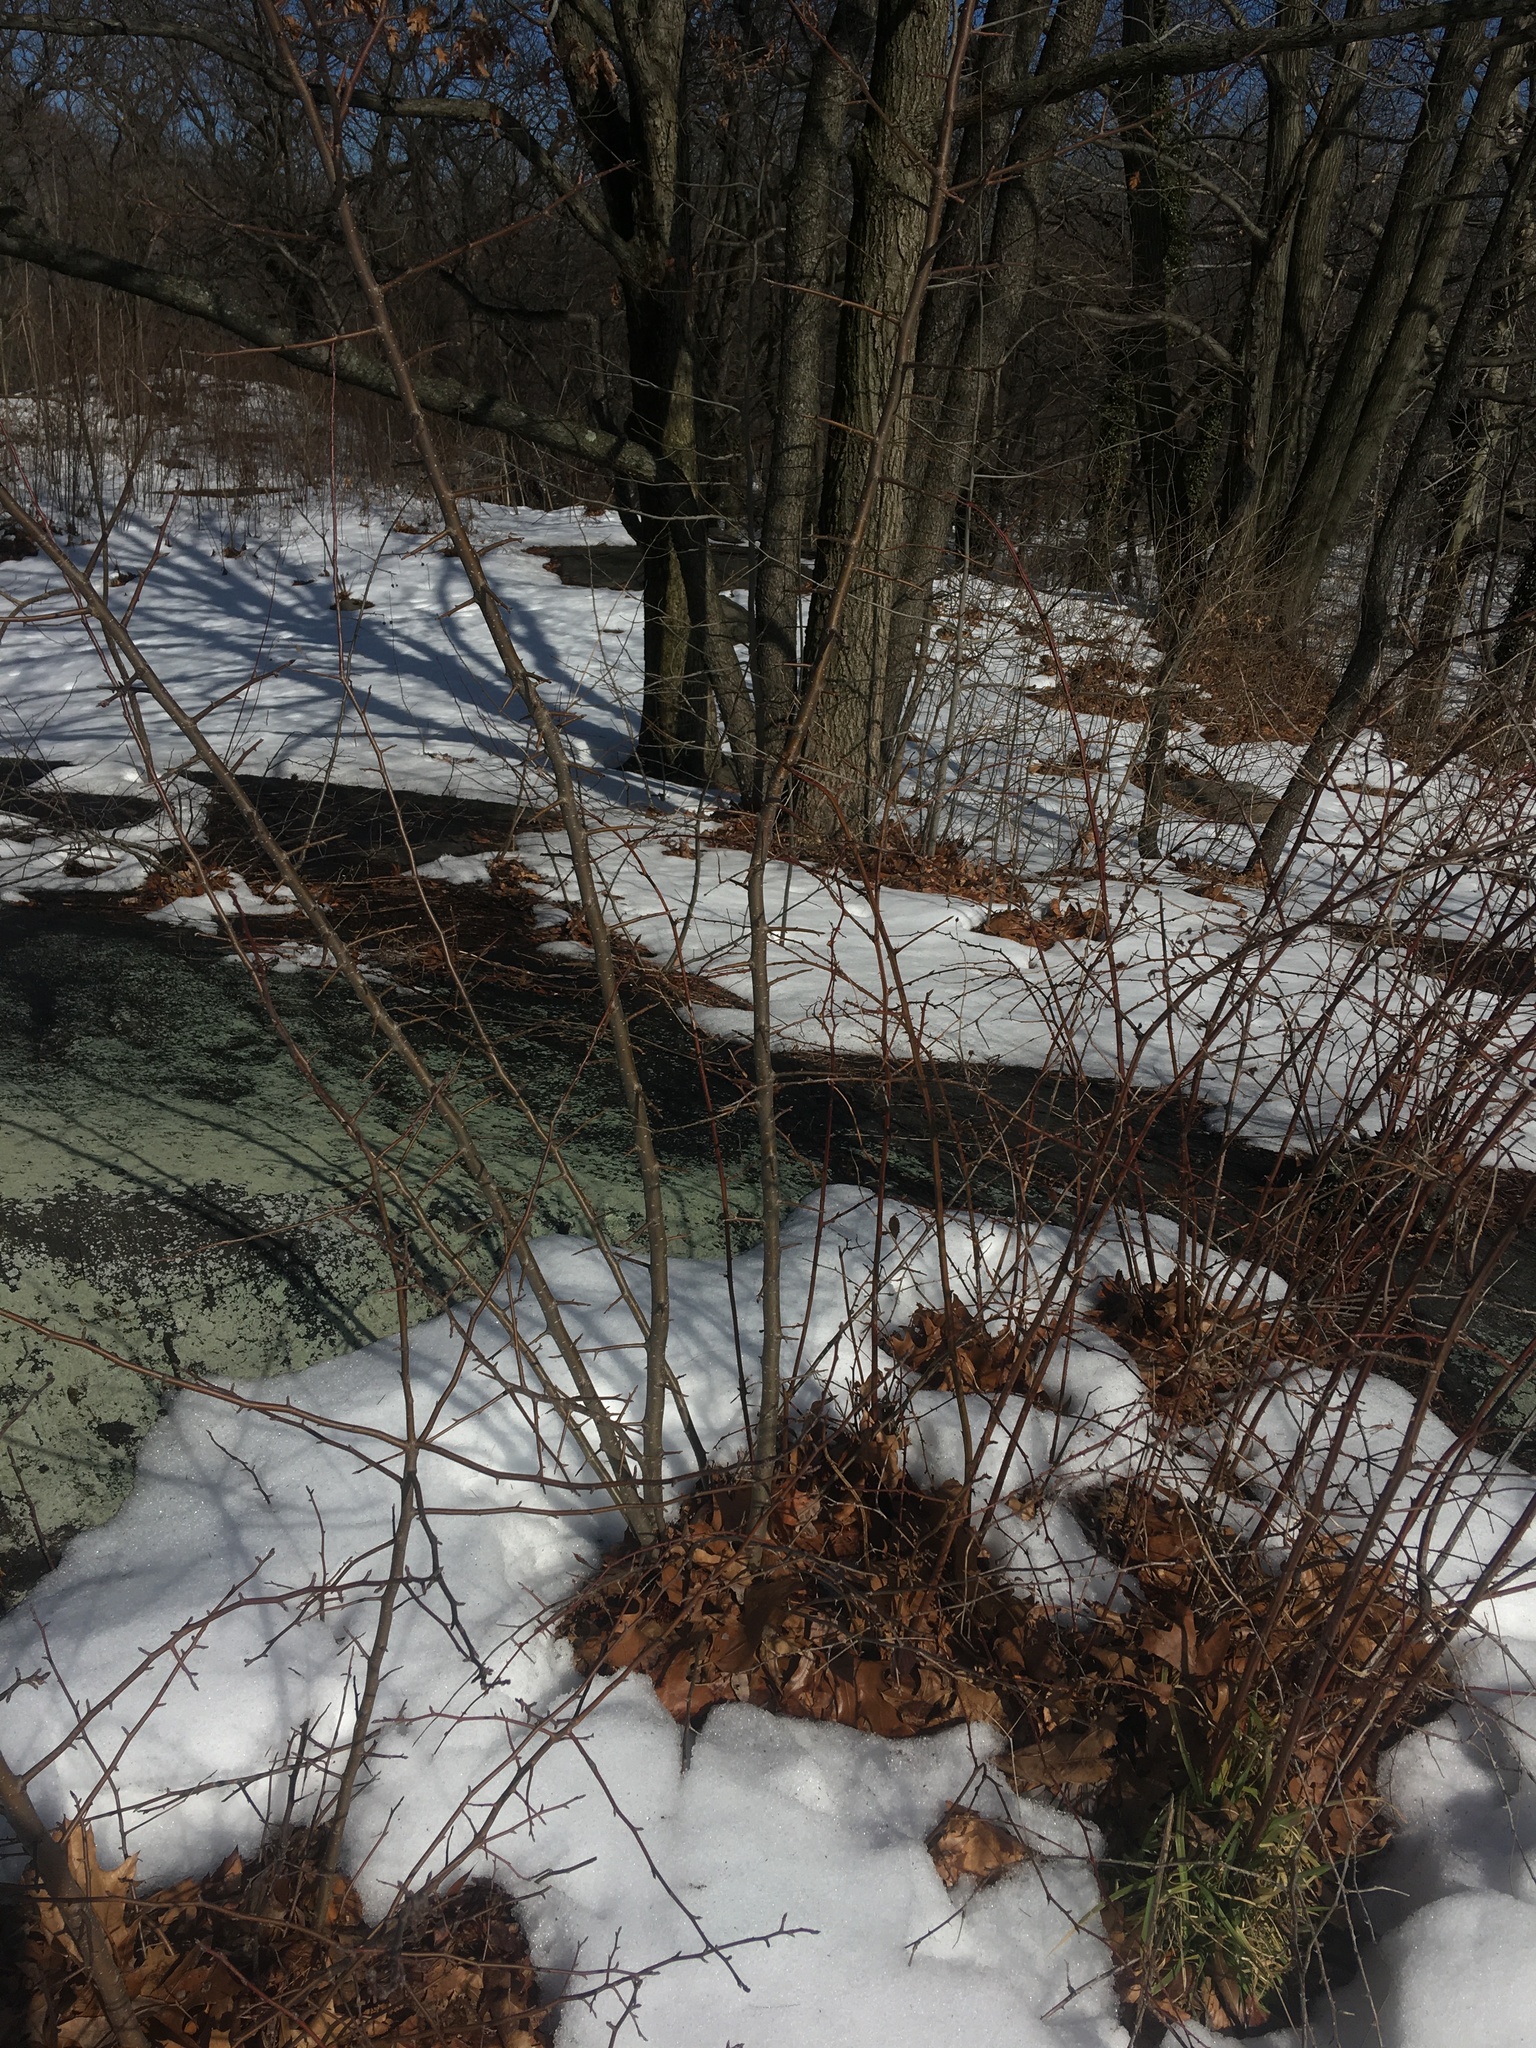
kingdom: Plantae
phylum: Tracheophyta
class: Magnoliopsida
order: Rosales
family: Rosaceae
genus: Malus
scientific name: Malus hupehensis
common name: Chinese crab apple
